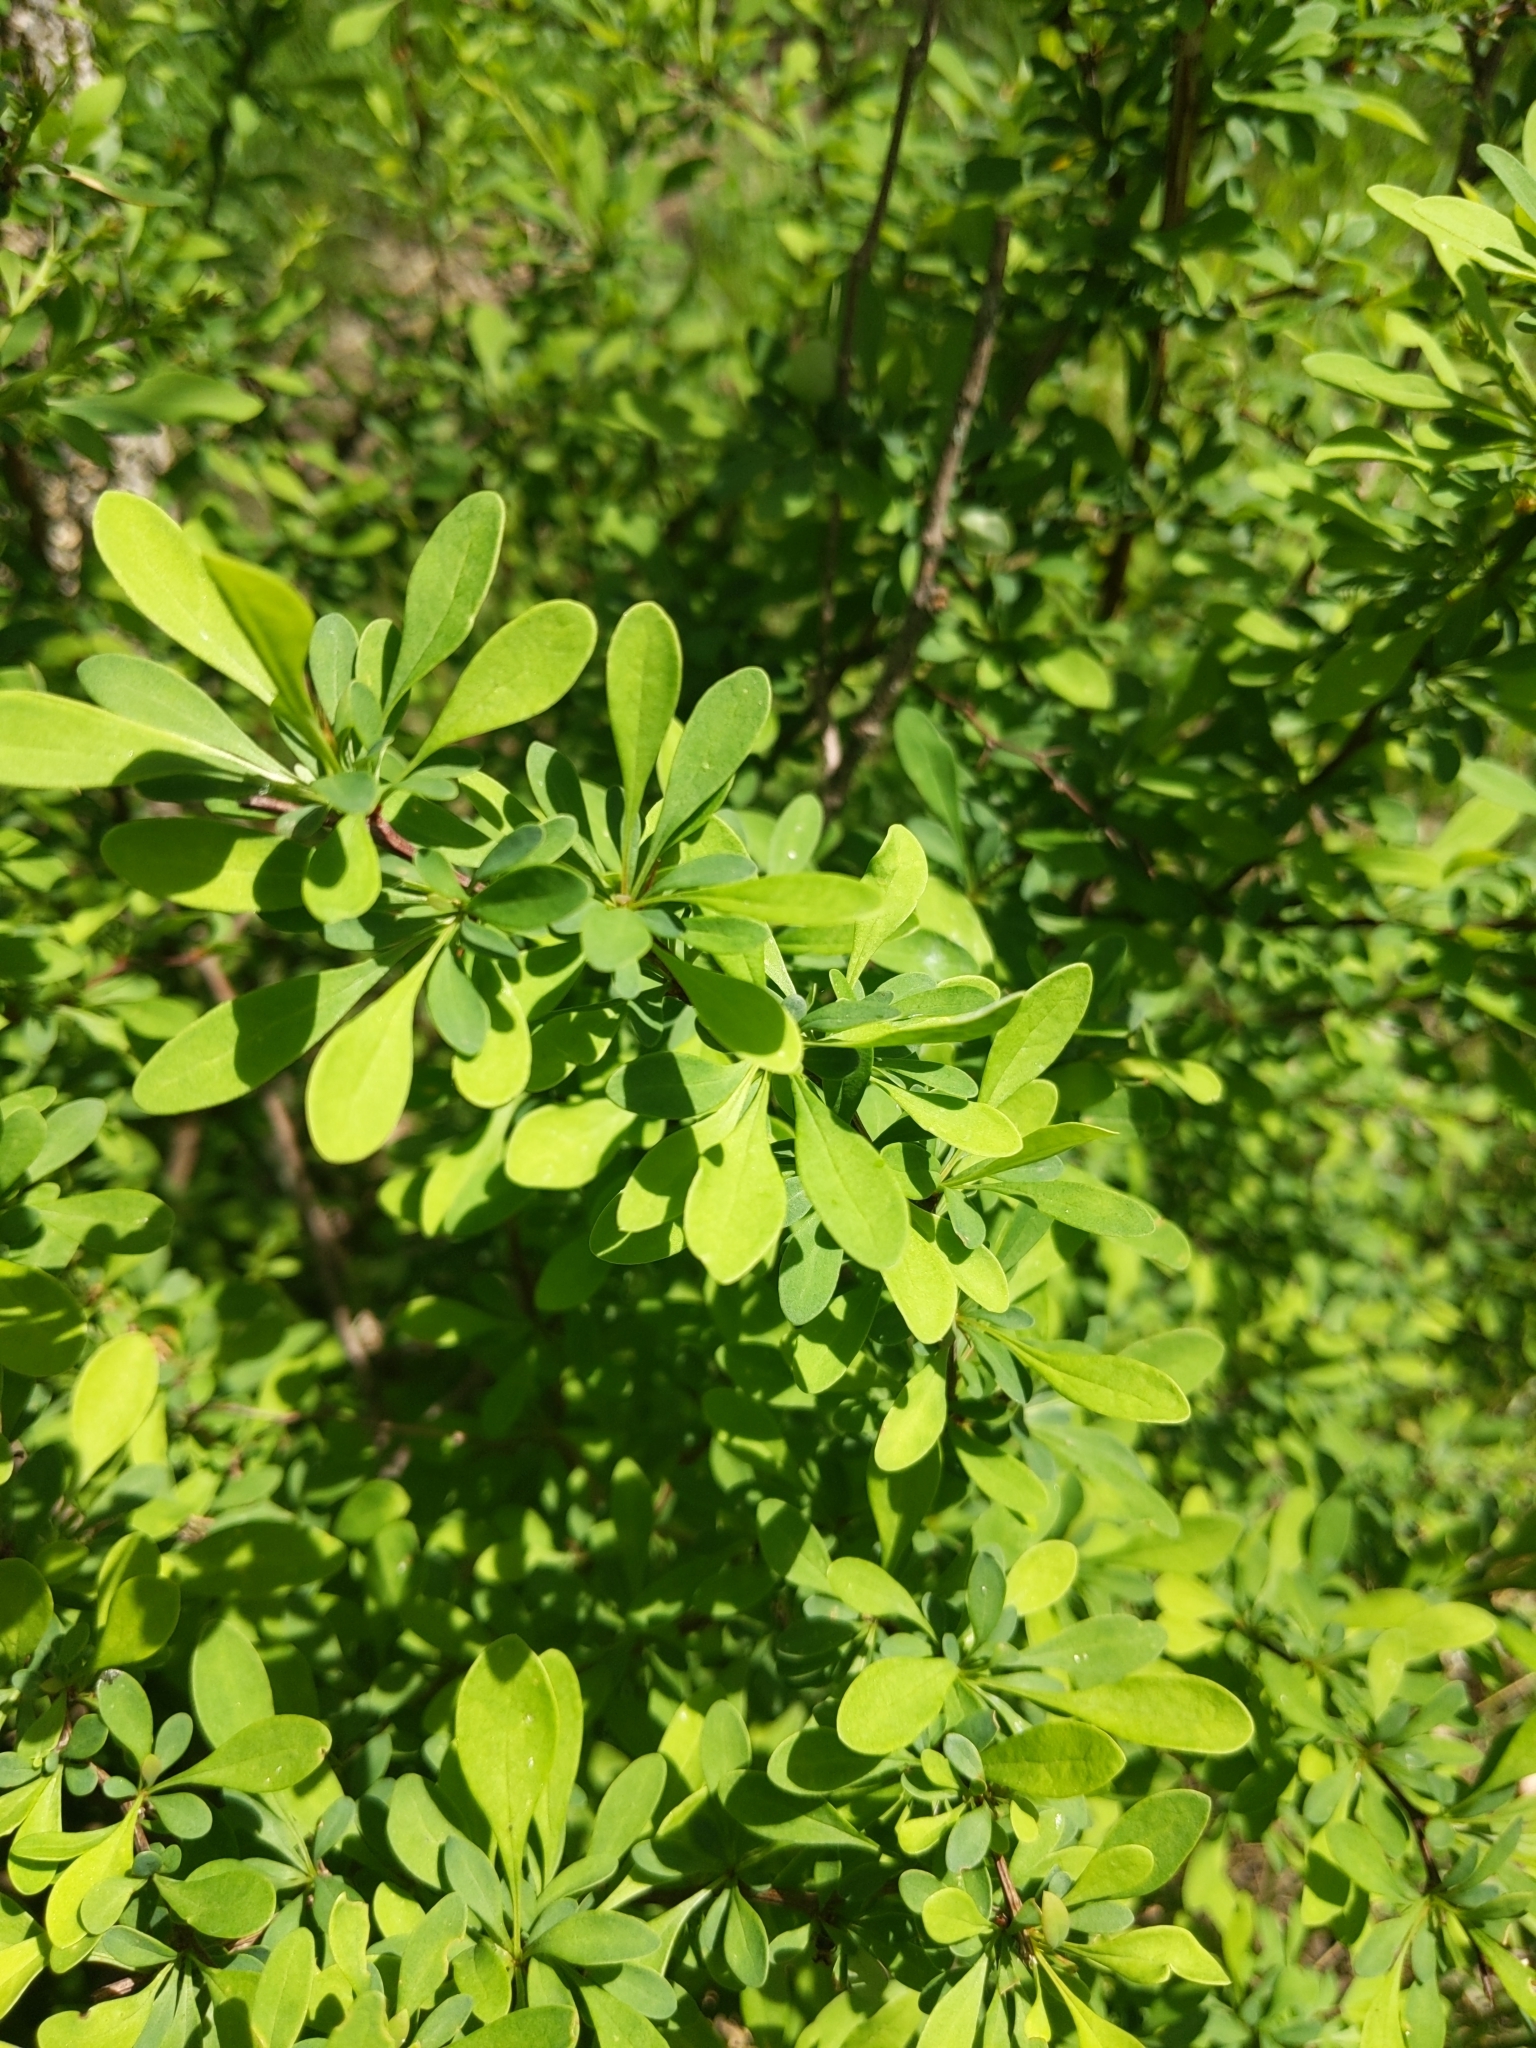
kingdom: Plantae
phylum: Tracheophyta
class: Magnoliopsida
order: Ranunculales
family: Berberidaceae
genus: Berberis
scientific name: Berberis thunbergii
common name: Japanese barberry
